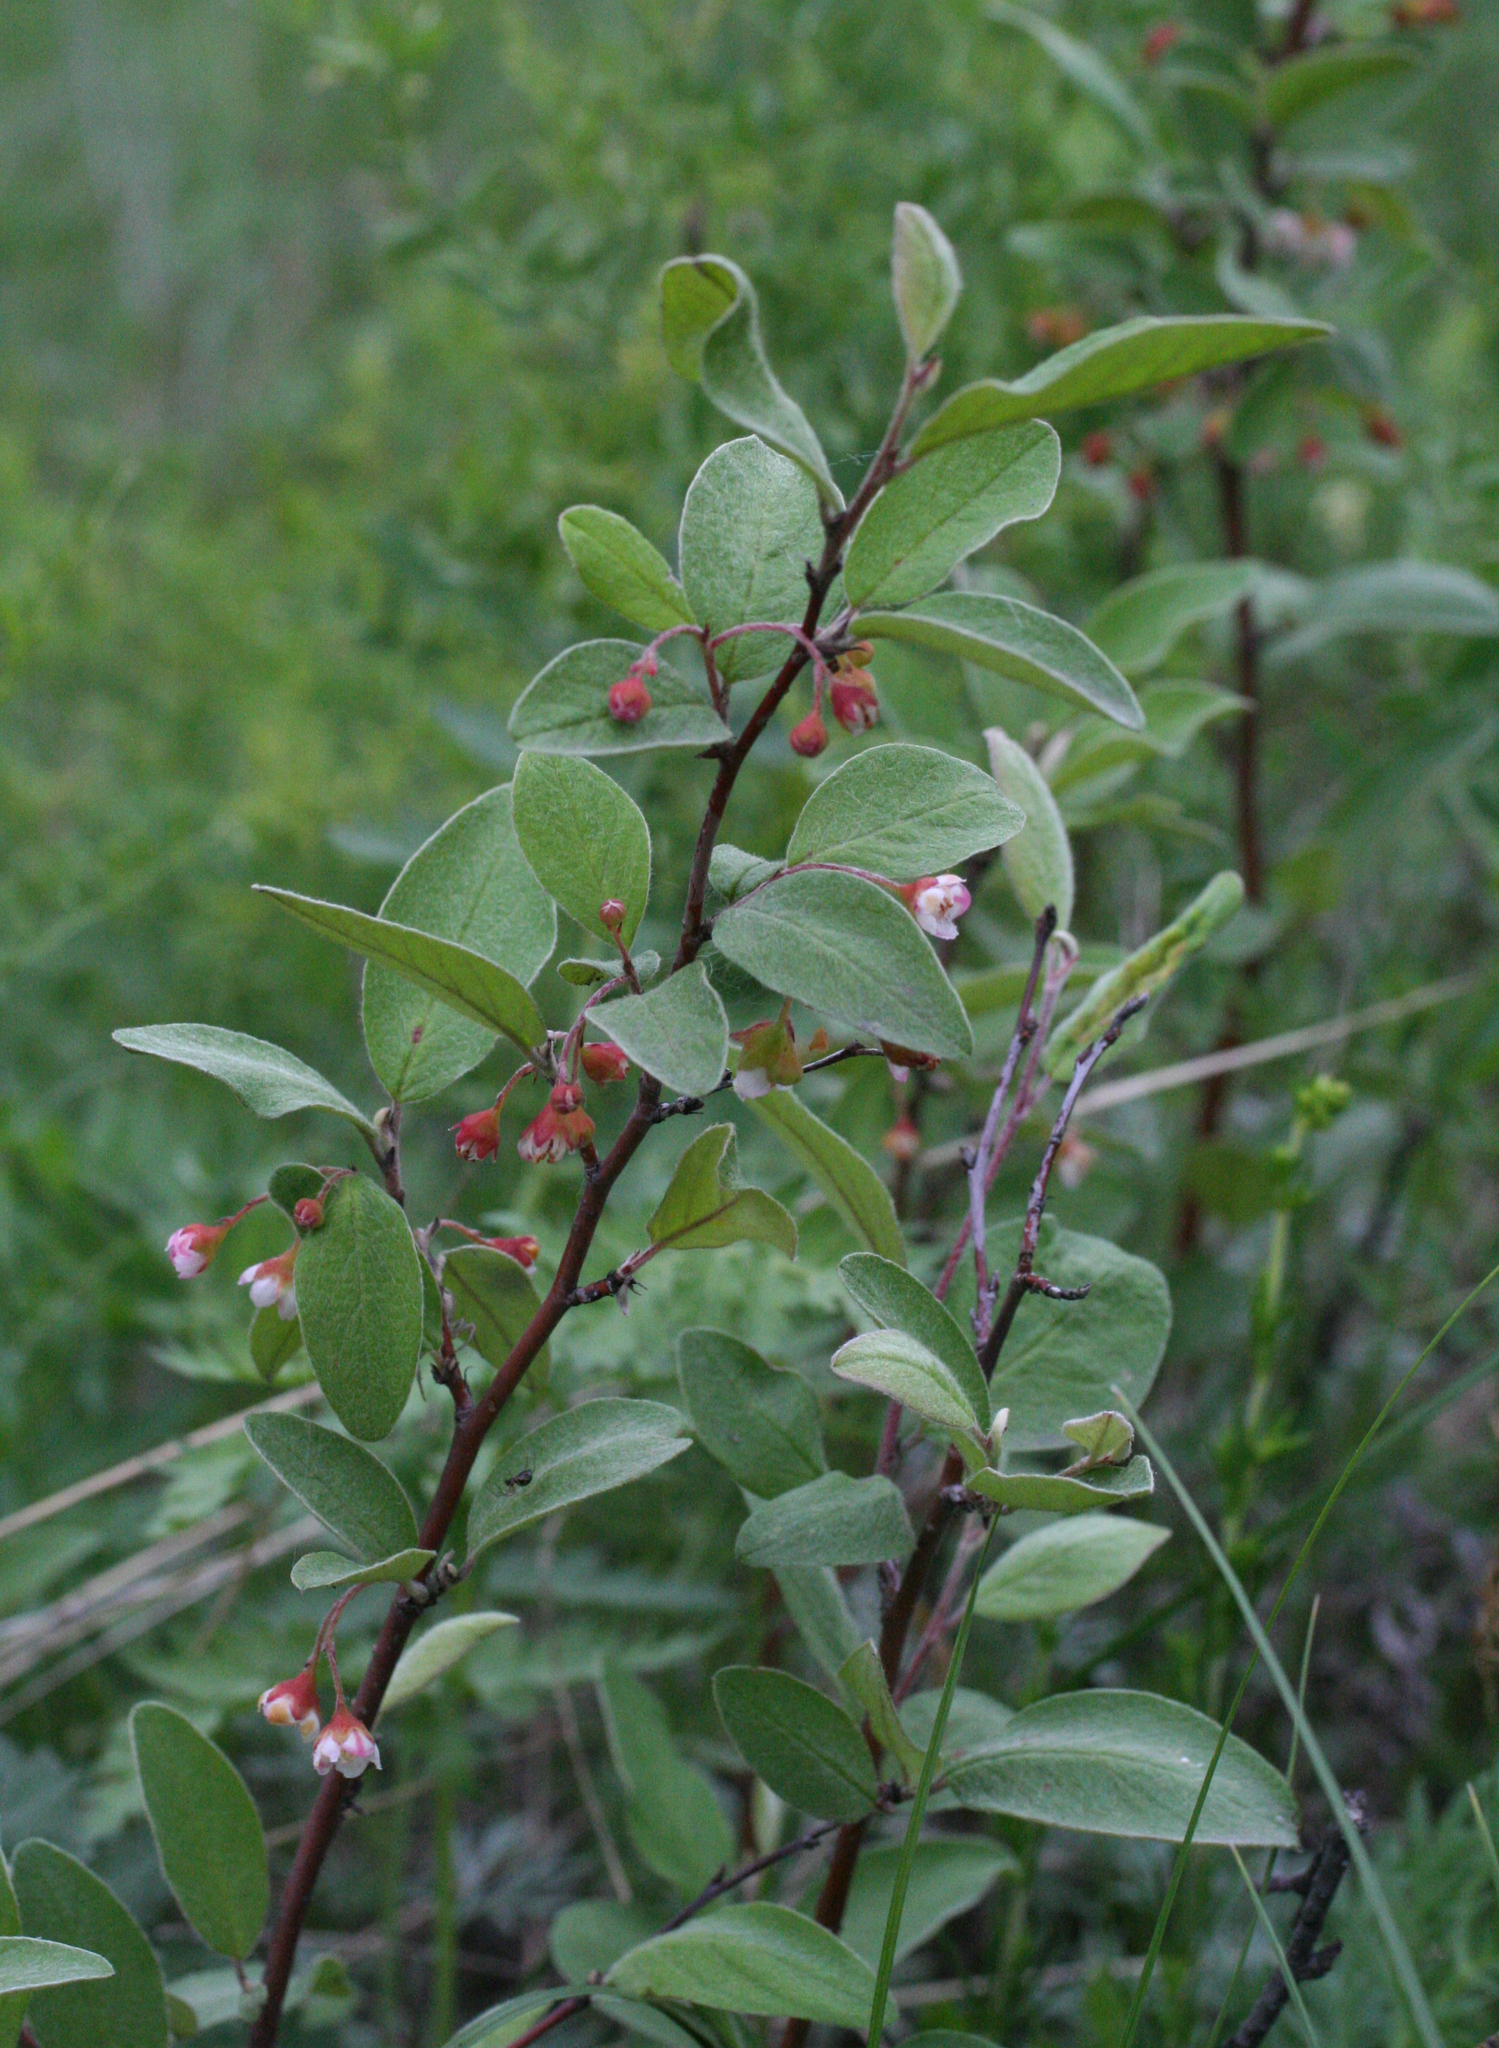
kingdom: Plantae
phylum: Tracheophyta
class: Magnoliopsida
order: Rosales
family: Rosaceae
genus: Cotoneaster
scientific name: Cotoneaster melanocarpus
